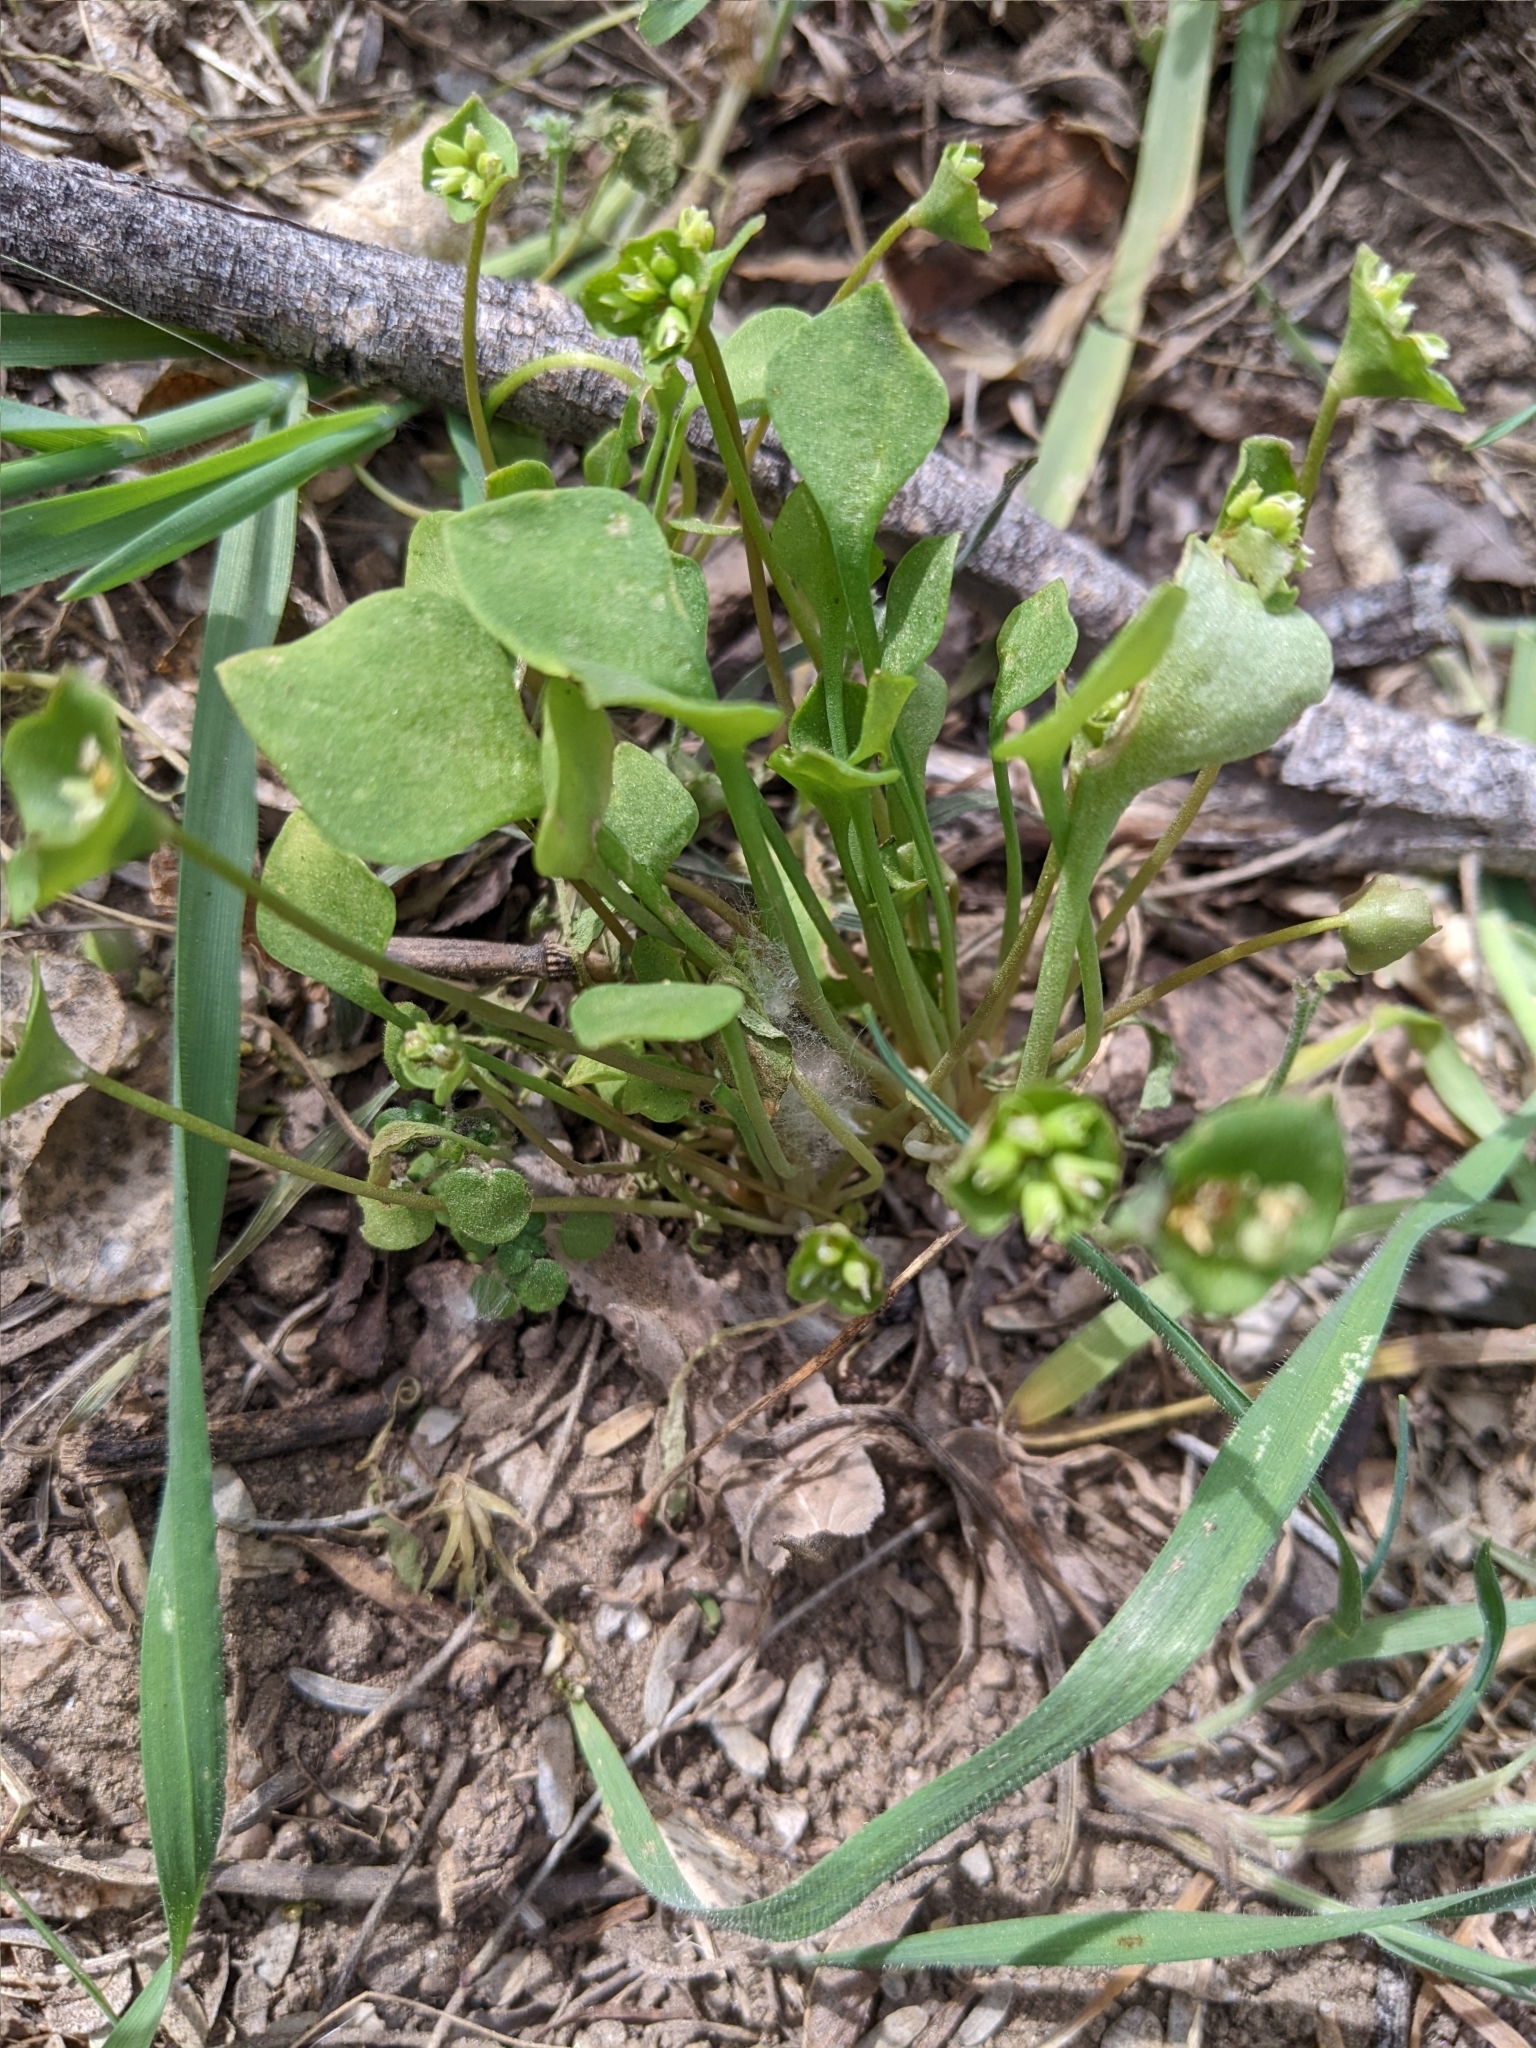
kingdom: Plantae
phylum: Tracheophyta
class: Magnoliopsida
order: Caryophyllales
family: Montiaceae
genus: Claytonia
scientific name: Claytonia perfoliata
